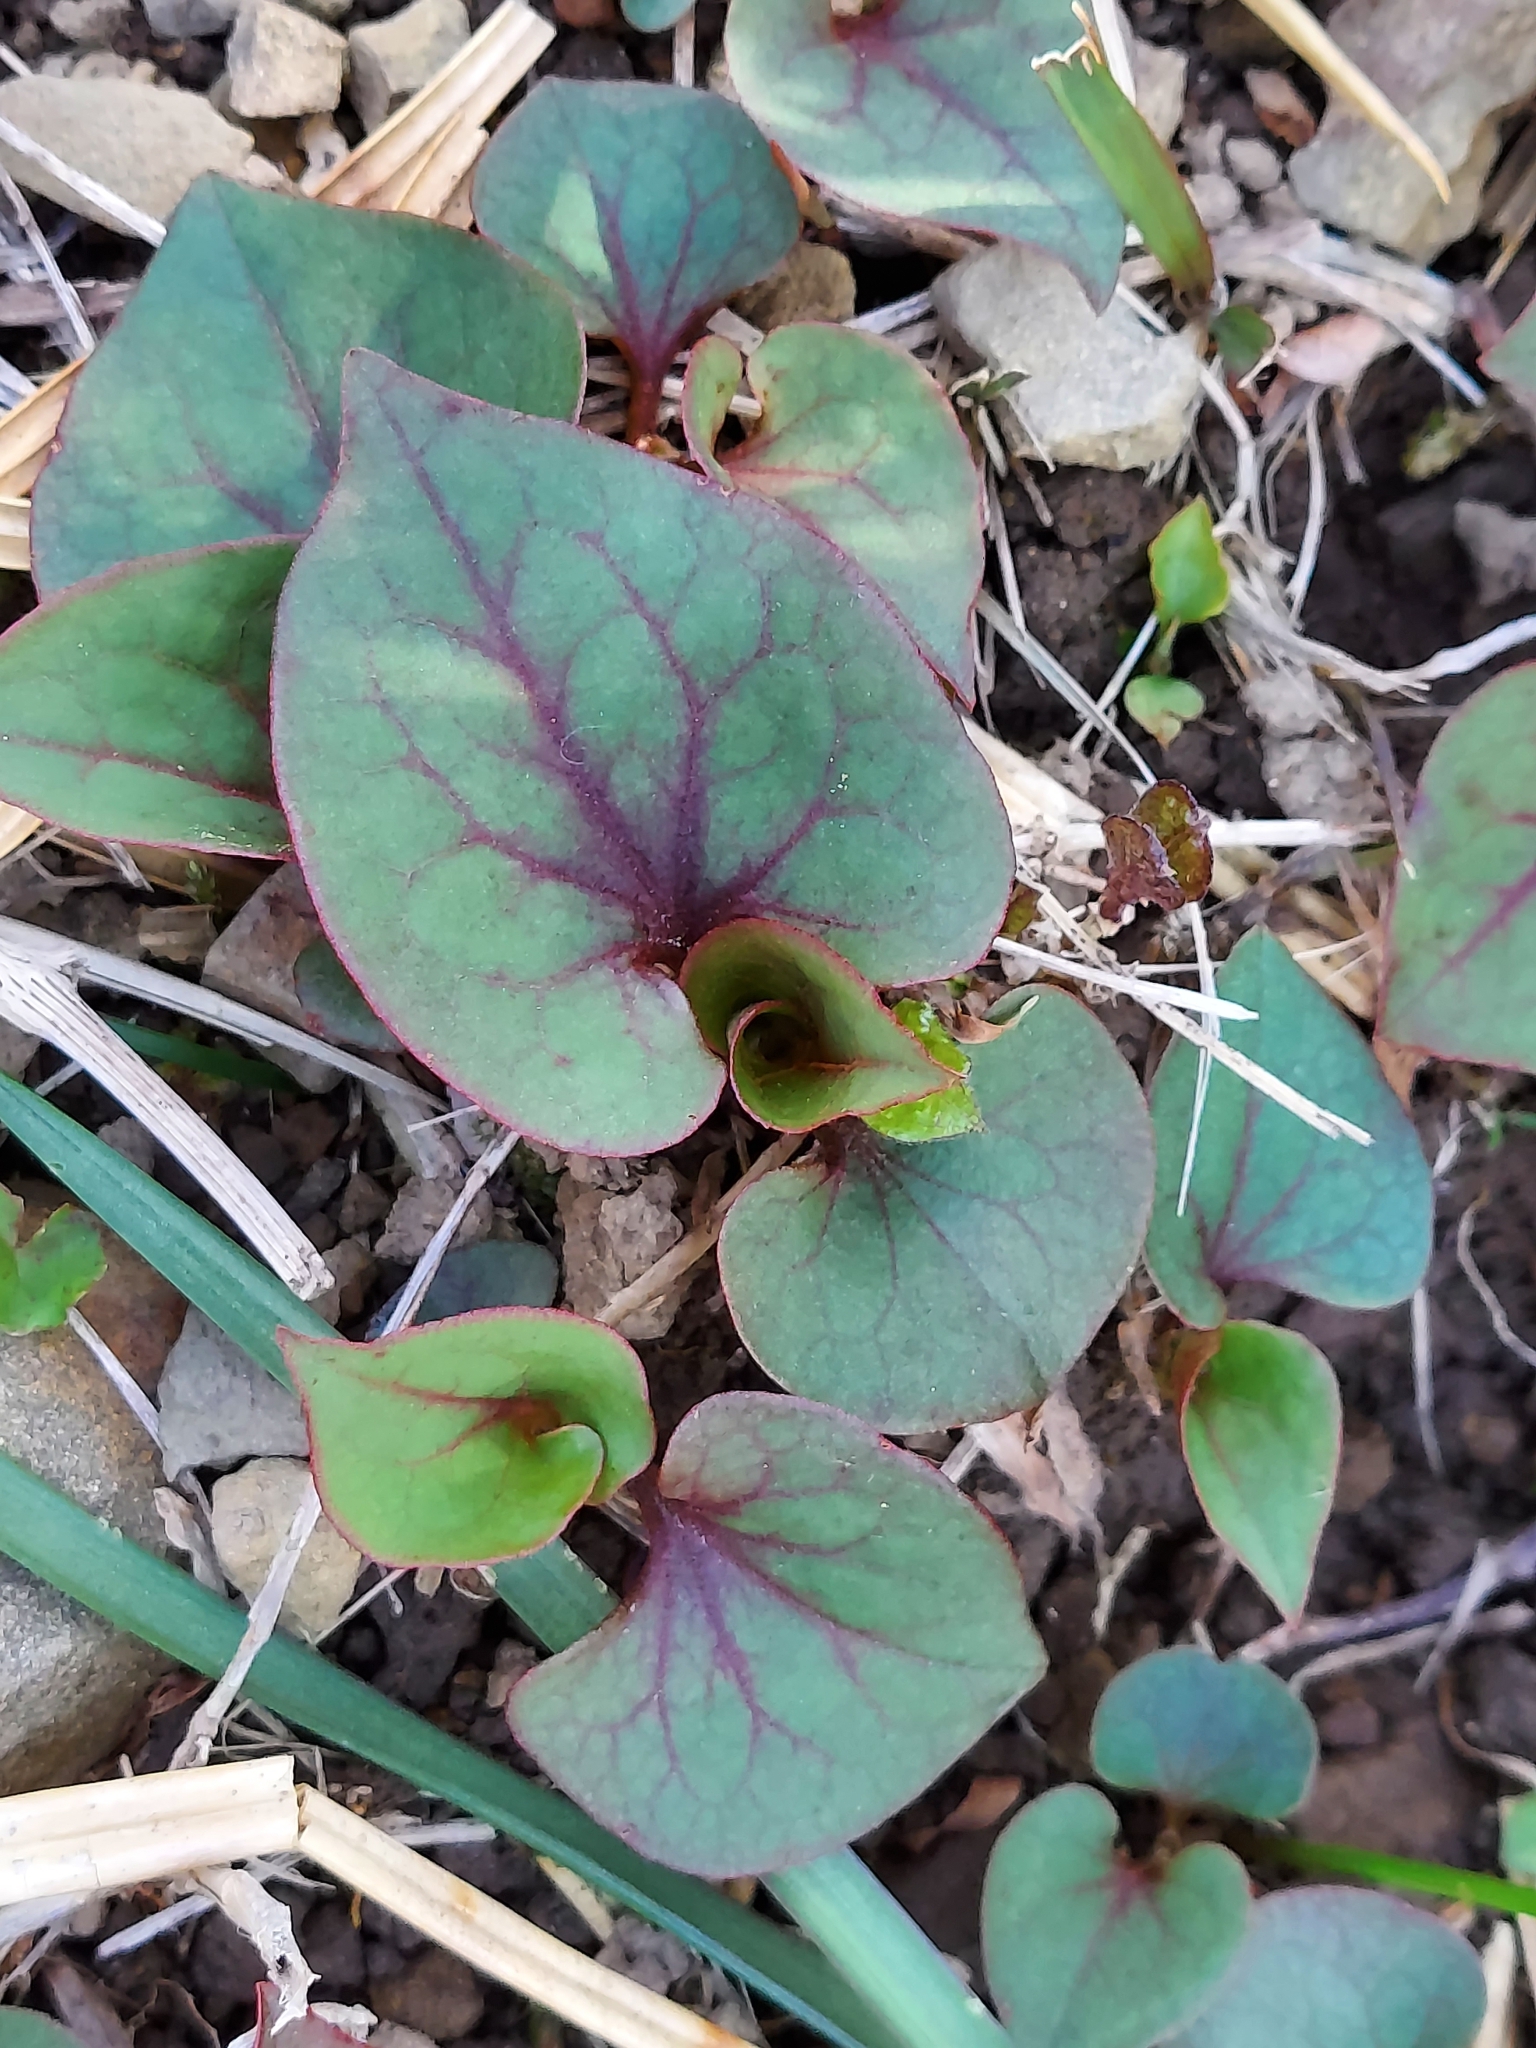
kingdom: Plantae
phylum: Tracheophyta
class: Magnoliopsida
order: Piperales
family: Saururaceae
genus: Houttuynia
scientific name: Houttuynia cordata
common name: Chameleon
